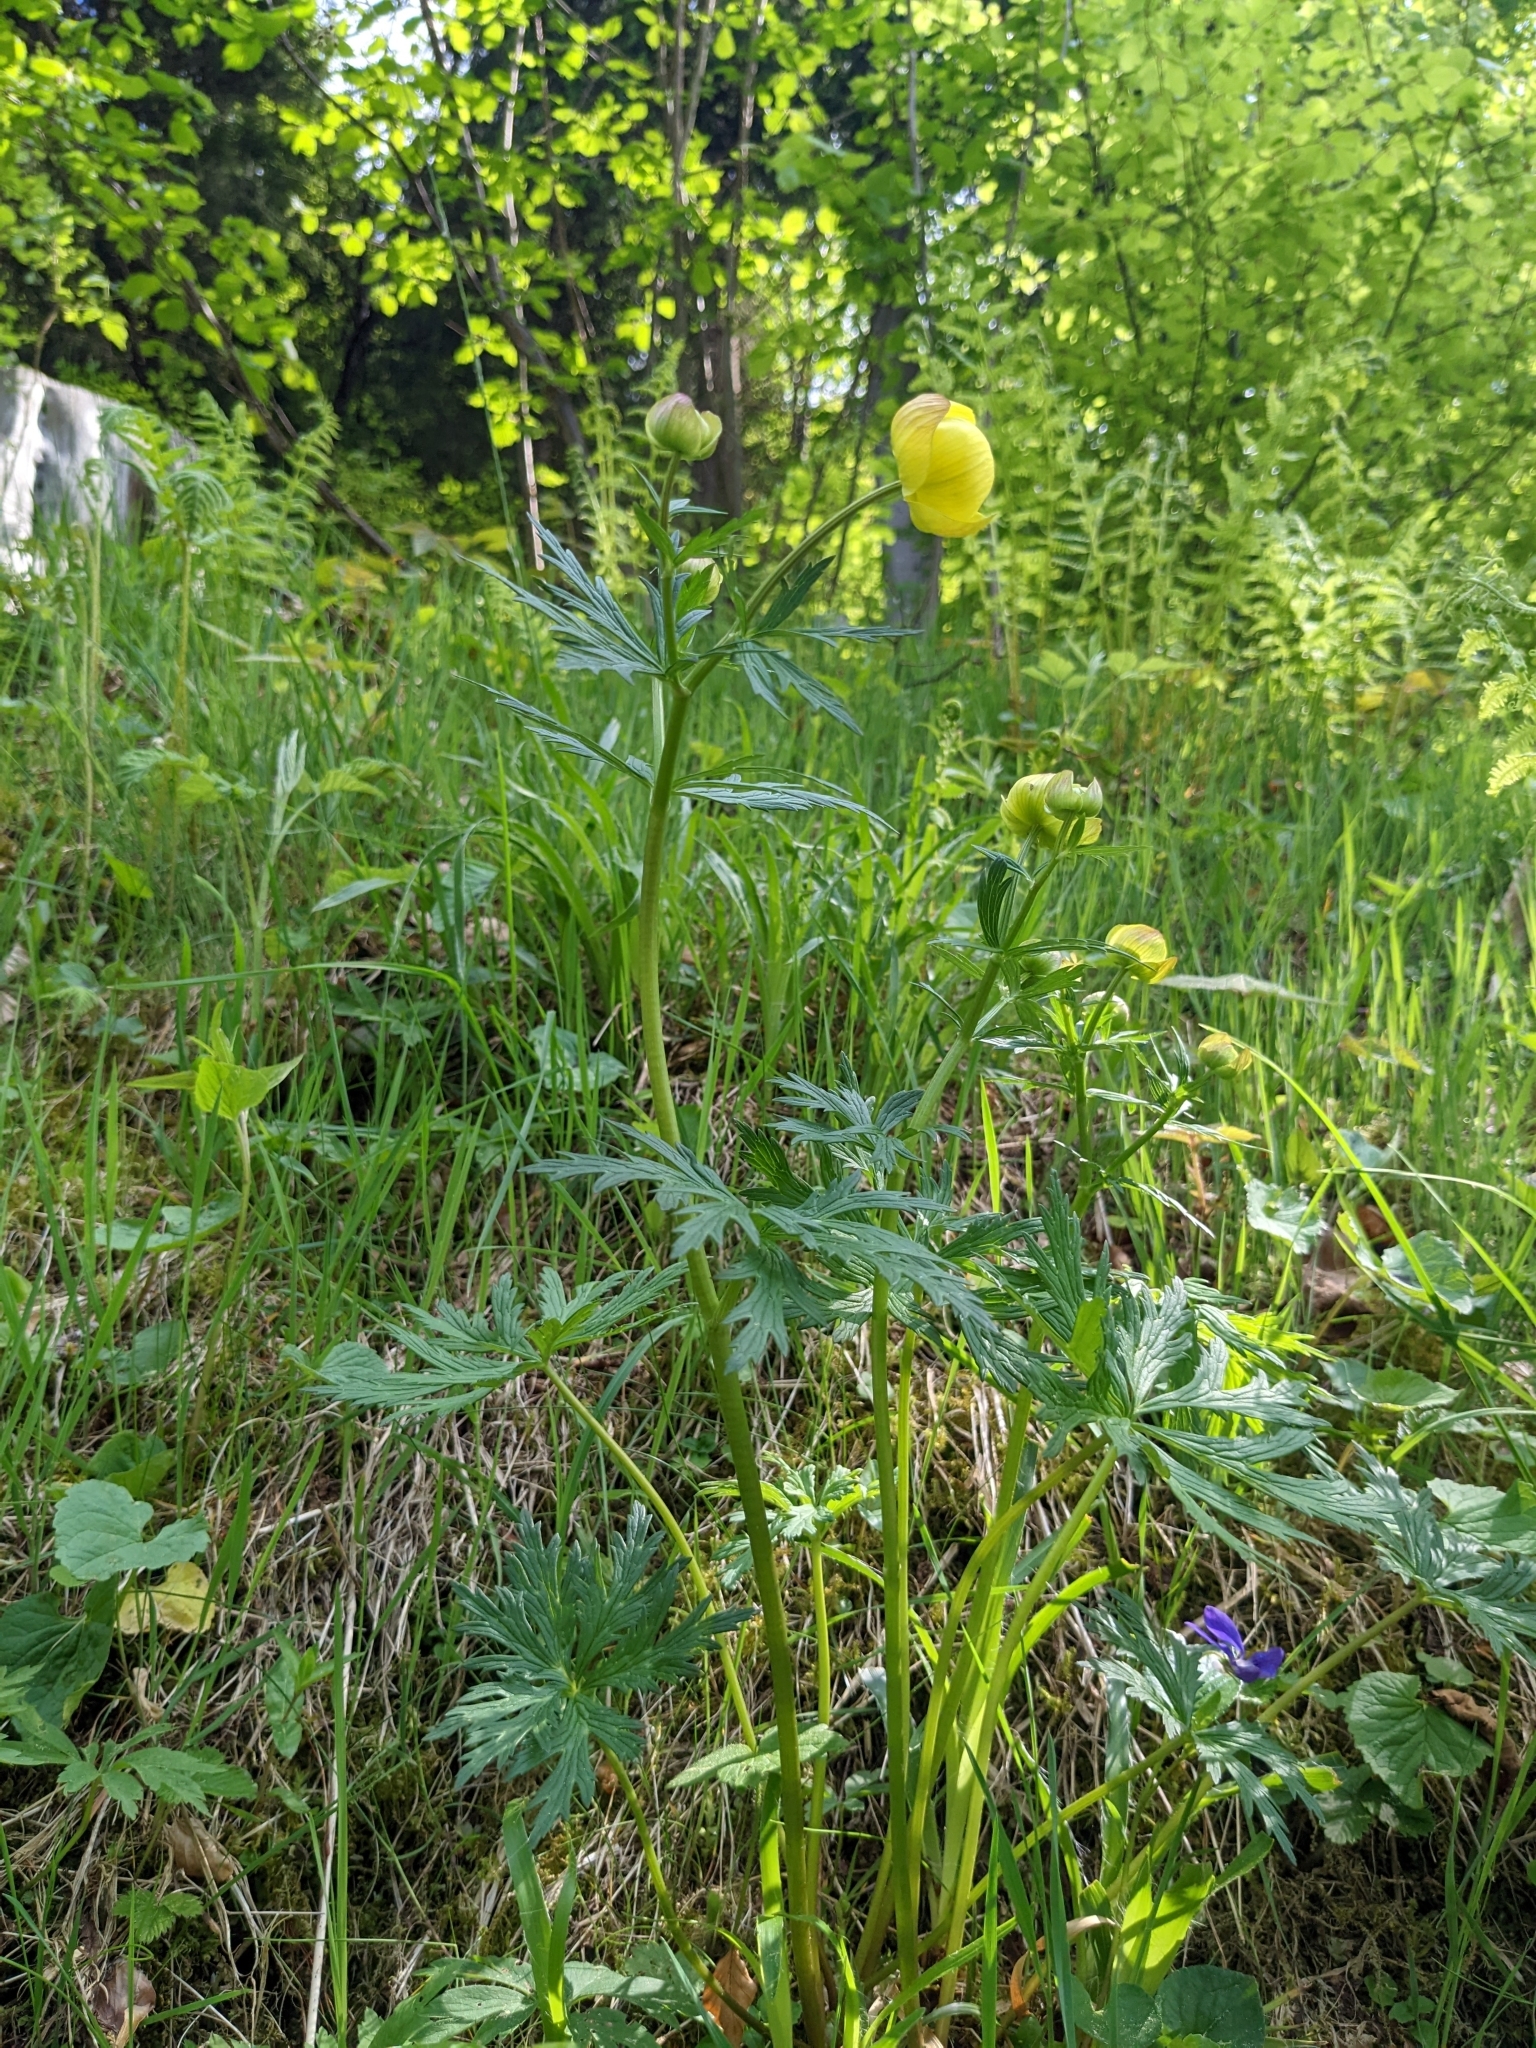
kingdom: Plantae
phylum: Tracheophyta
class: Magnoliopsida
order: Ranunculales
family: Ranunculaceae
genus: Trollius
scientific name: Trollius europaeus
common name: European globeflower
